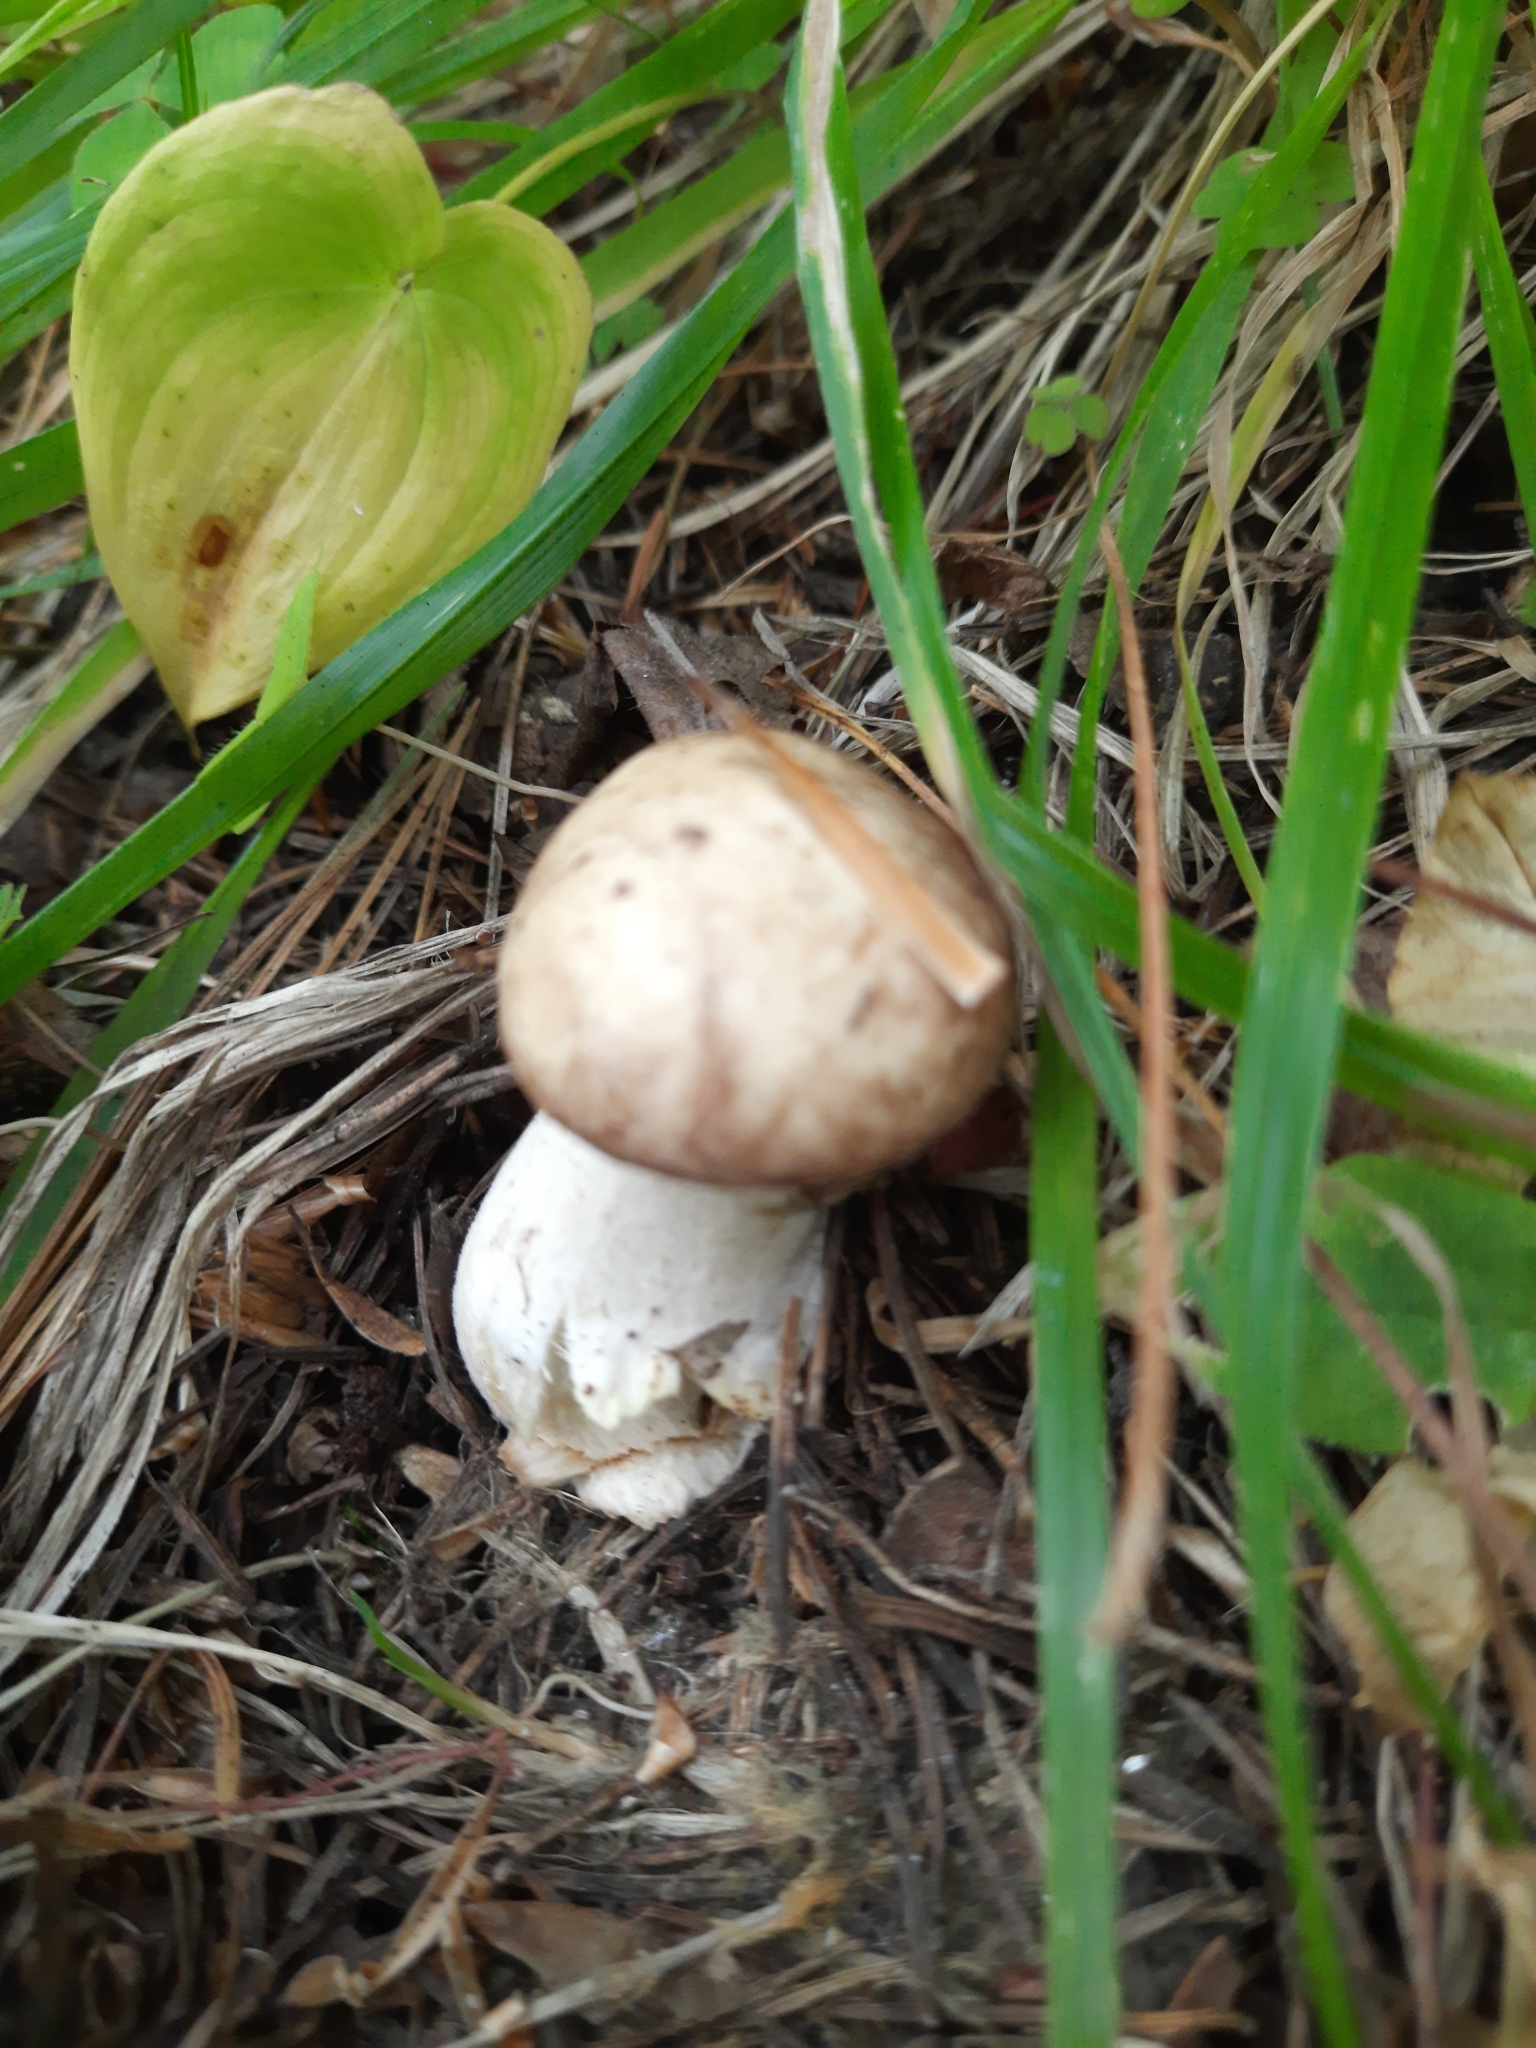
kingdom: Fungi
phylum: Basidiomycota
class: Agaricomycetes
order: Boletales
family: Suillaceae
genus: Suillus
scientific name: Suillus placidus
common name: Slippery white bolete
